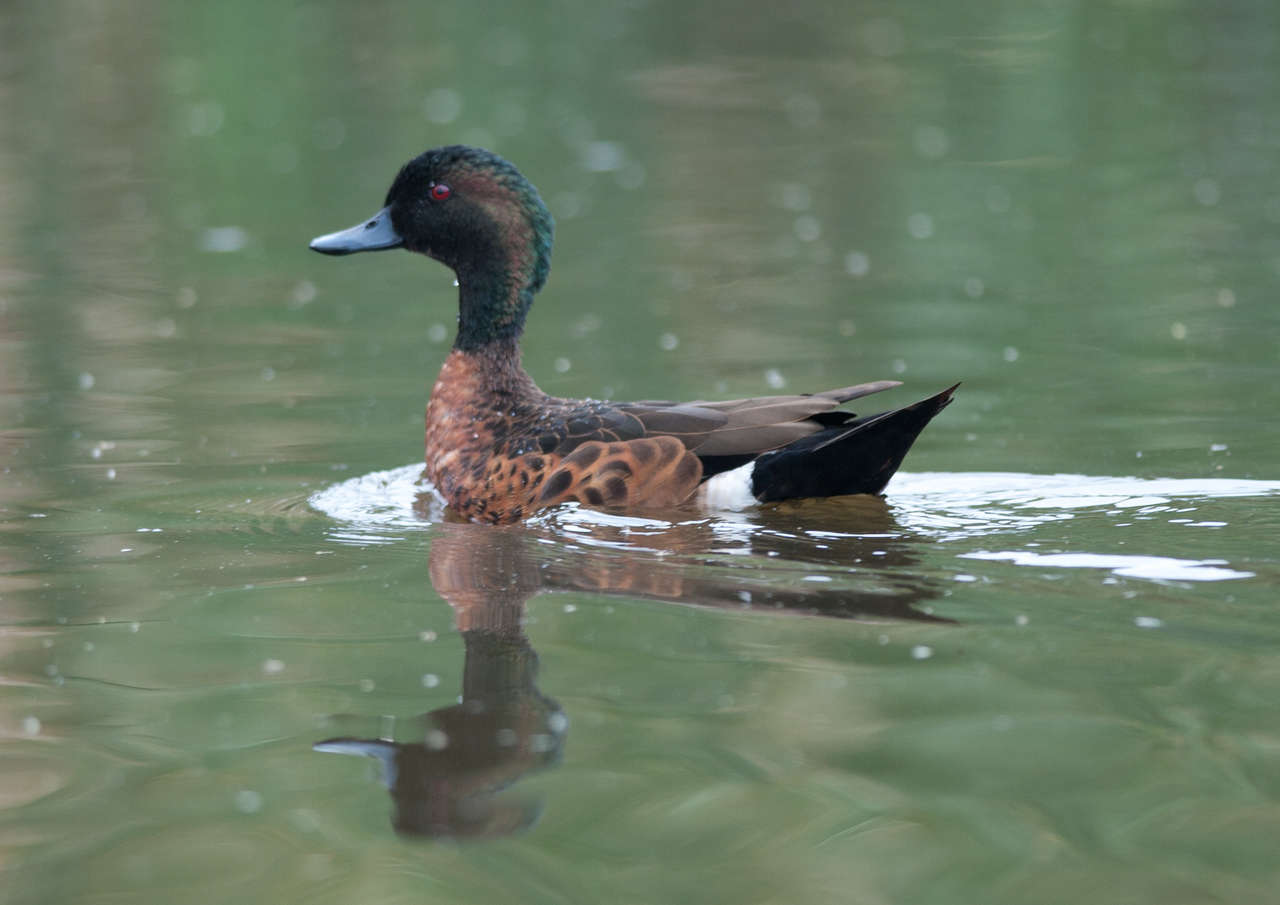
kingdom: Animalia
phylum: Chordata
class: Aves
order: Anseriformes
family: Anatidae
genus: Anas
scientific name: Anas castanea
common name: Chestnut teal
